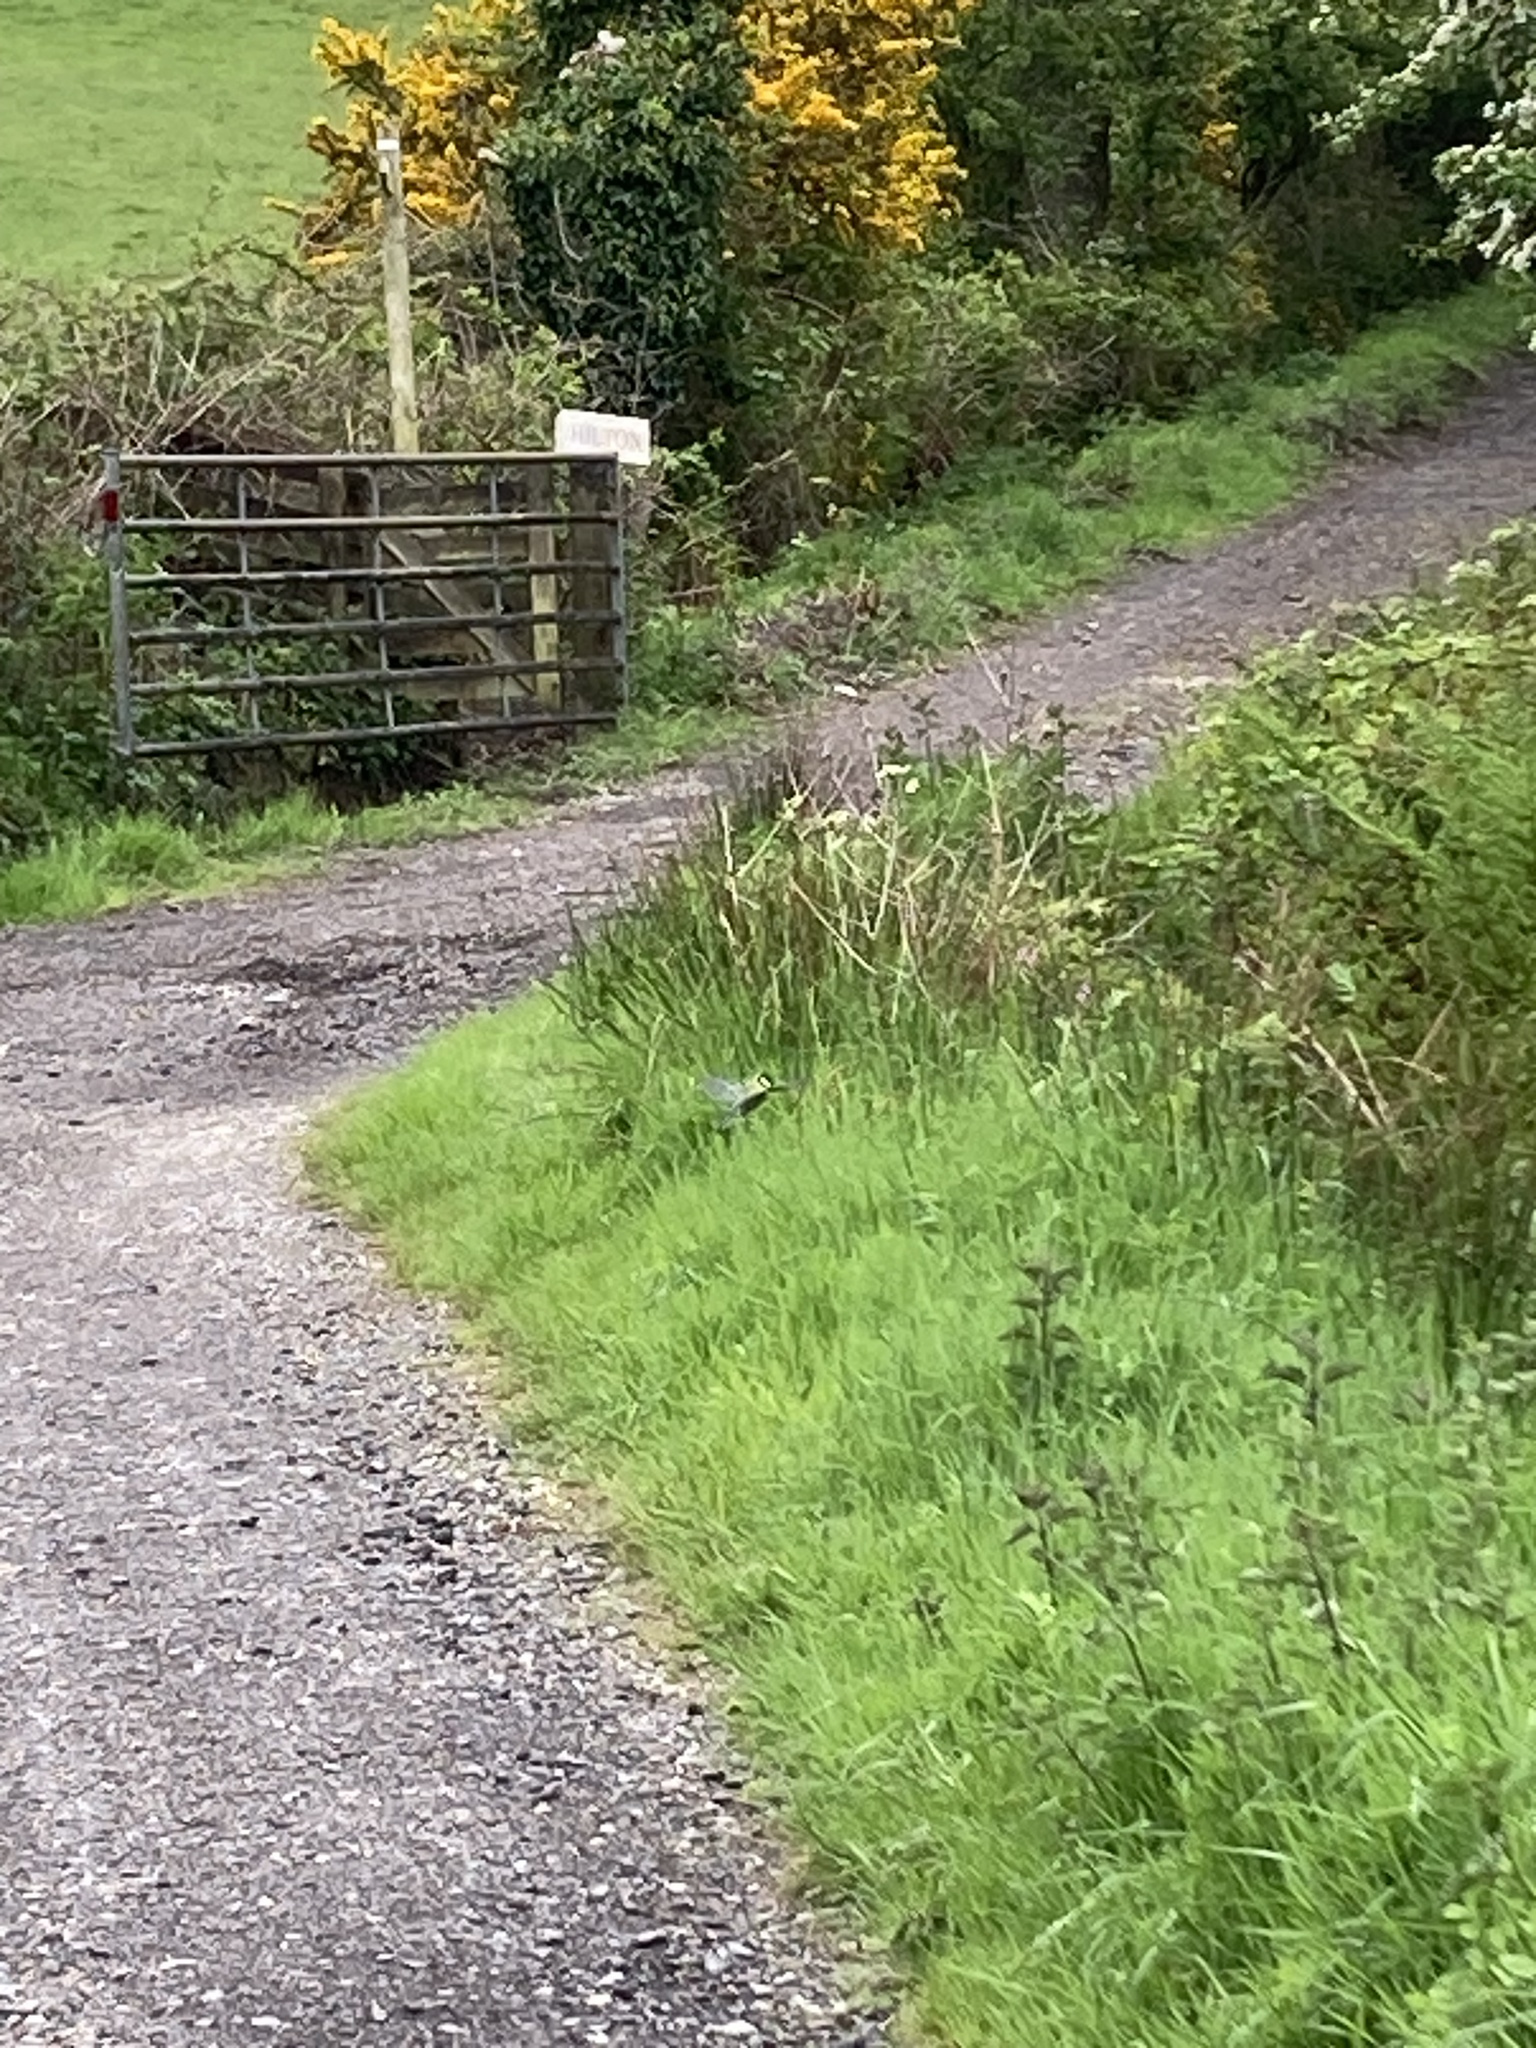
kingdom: Animalia
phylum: Chordata
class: Aves
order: Passeriformes
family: Paridae
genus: Parus
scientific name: Parus major
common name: Great tit
